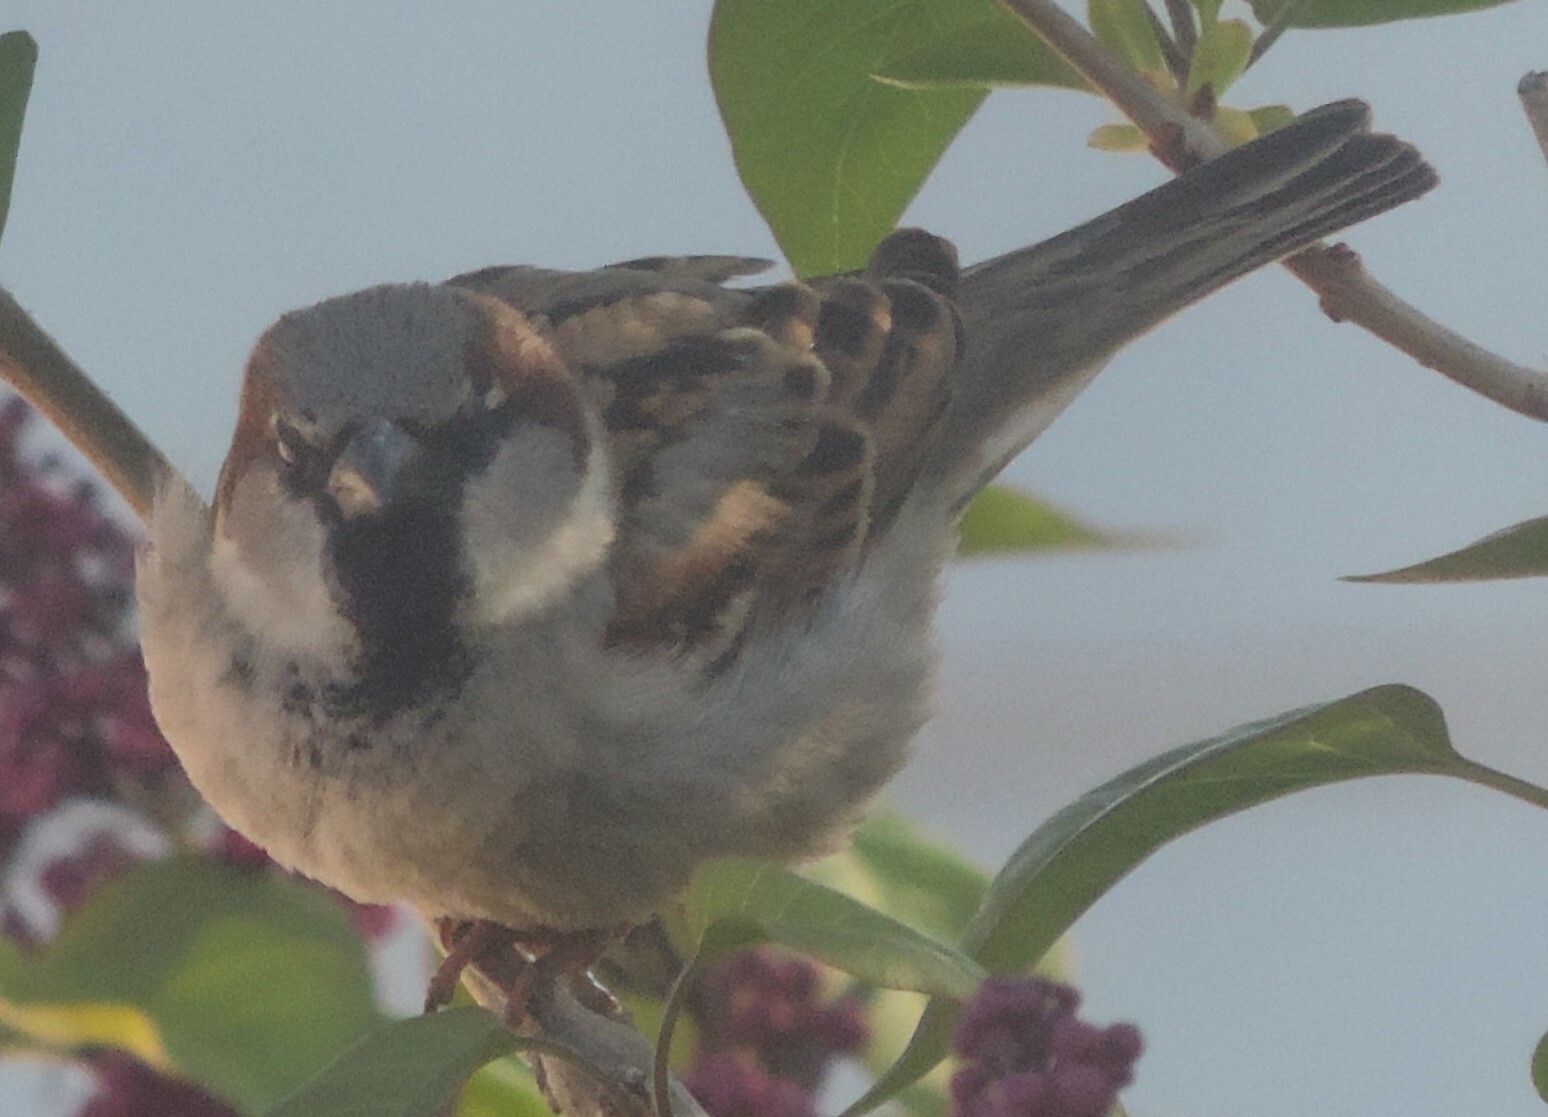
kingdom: Animalia
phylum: Chordata
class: Aves
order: Passeriformes
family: Passeridae
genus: Passer
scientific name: Passer domesticus
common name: House sparrow
